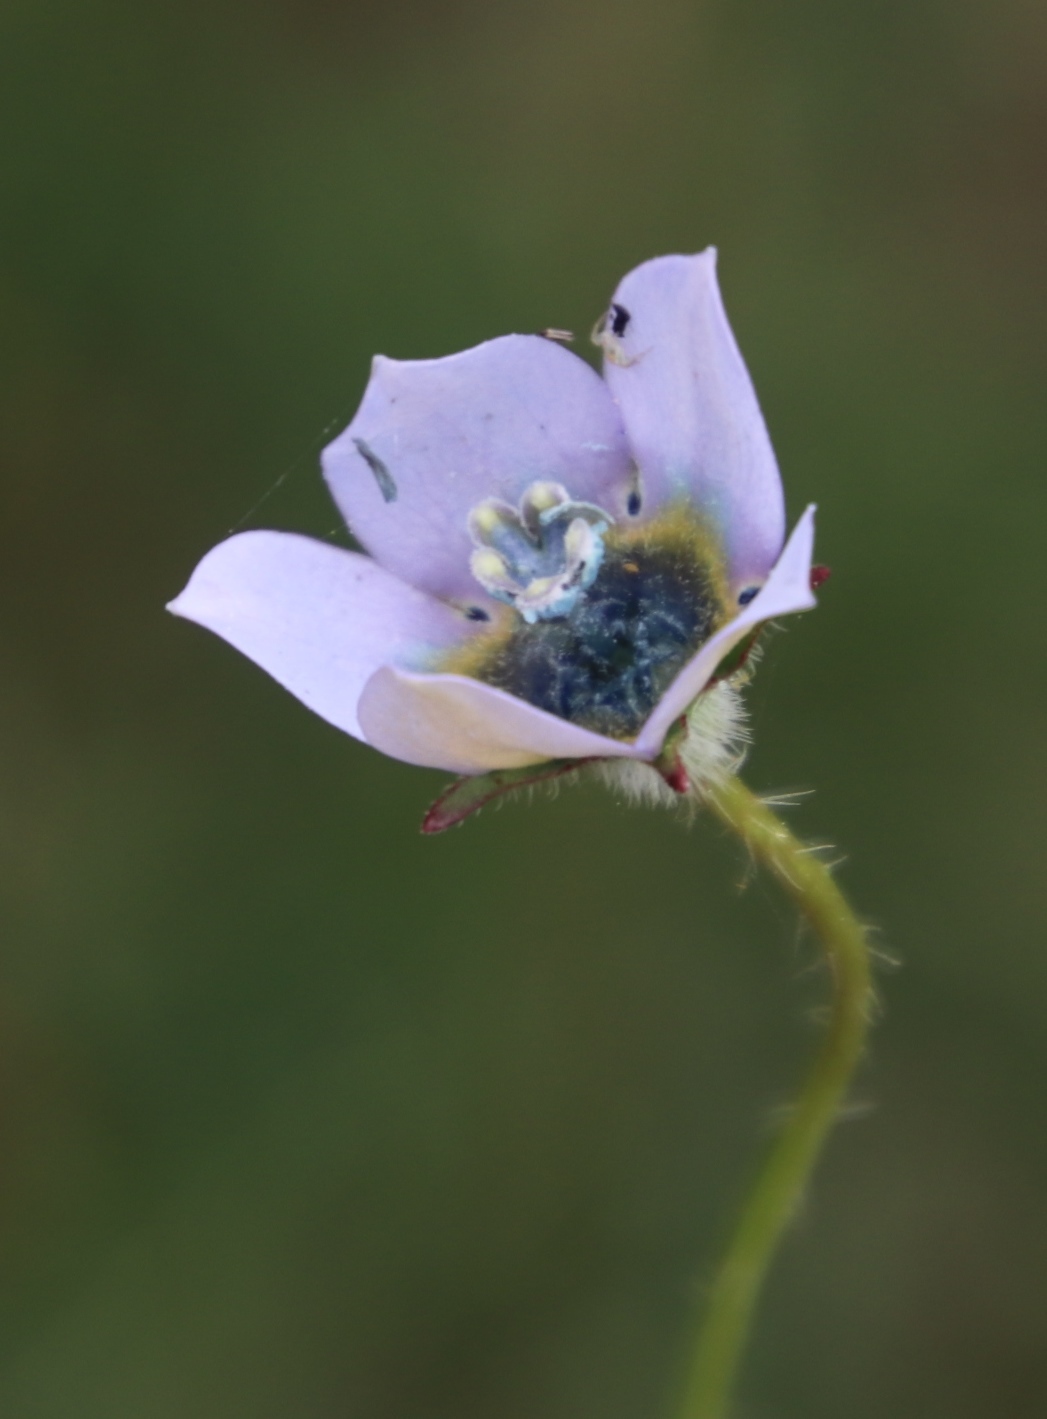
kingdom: Plantae
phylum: Tracheophyta
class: Magnoliopsida
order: Asterales
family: Campanulaceae
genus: Wahlenbergia
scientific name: Wahlenbergia capensis
